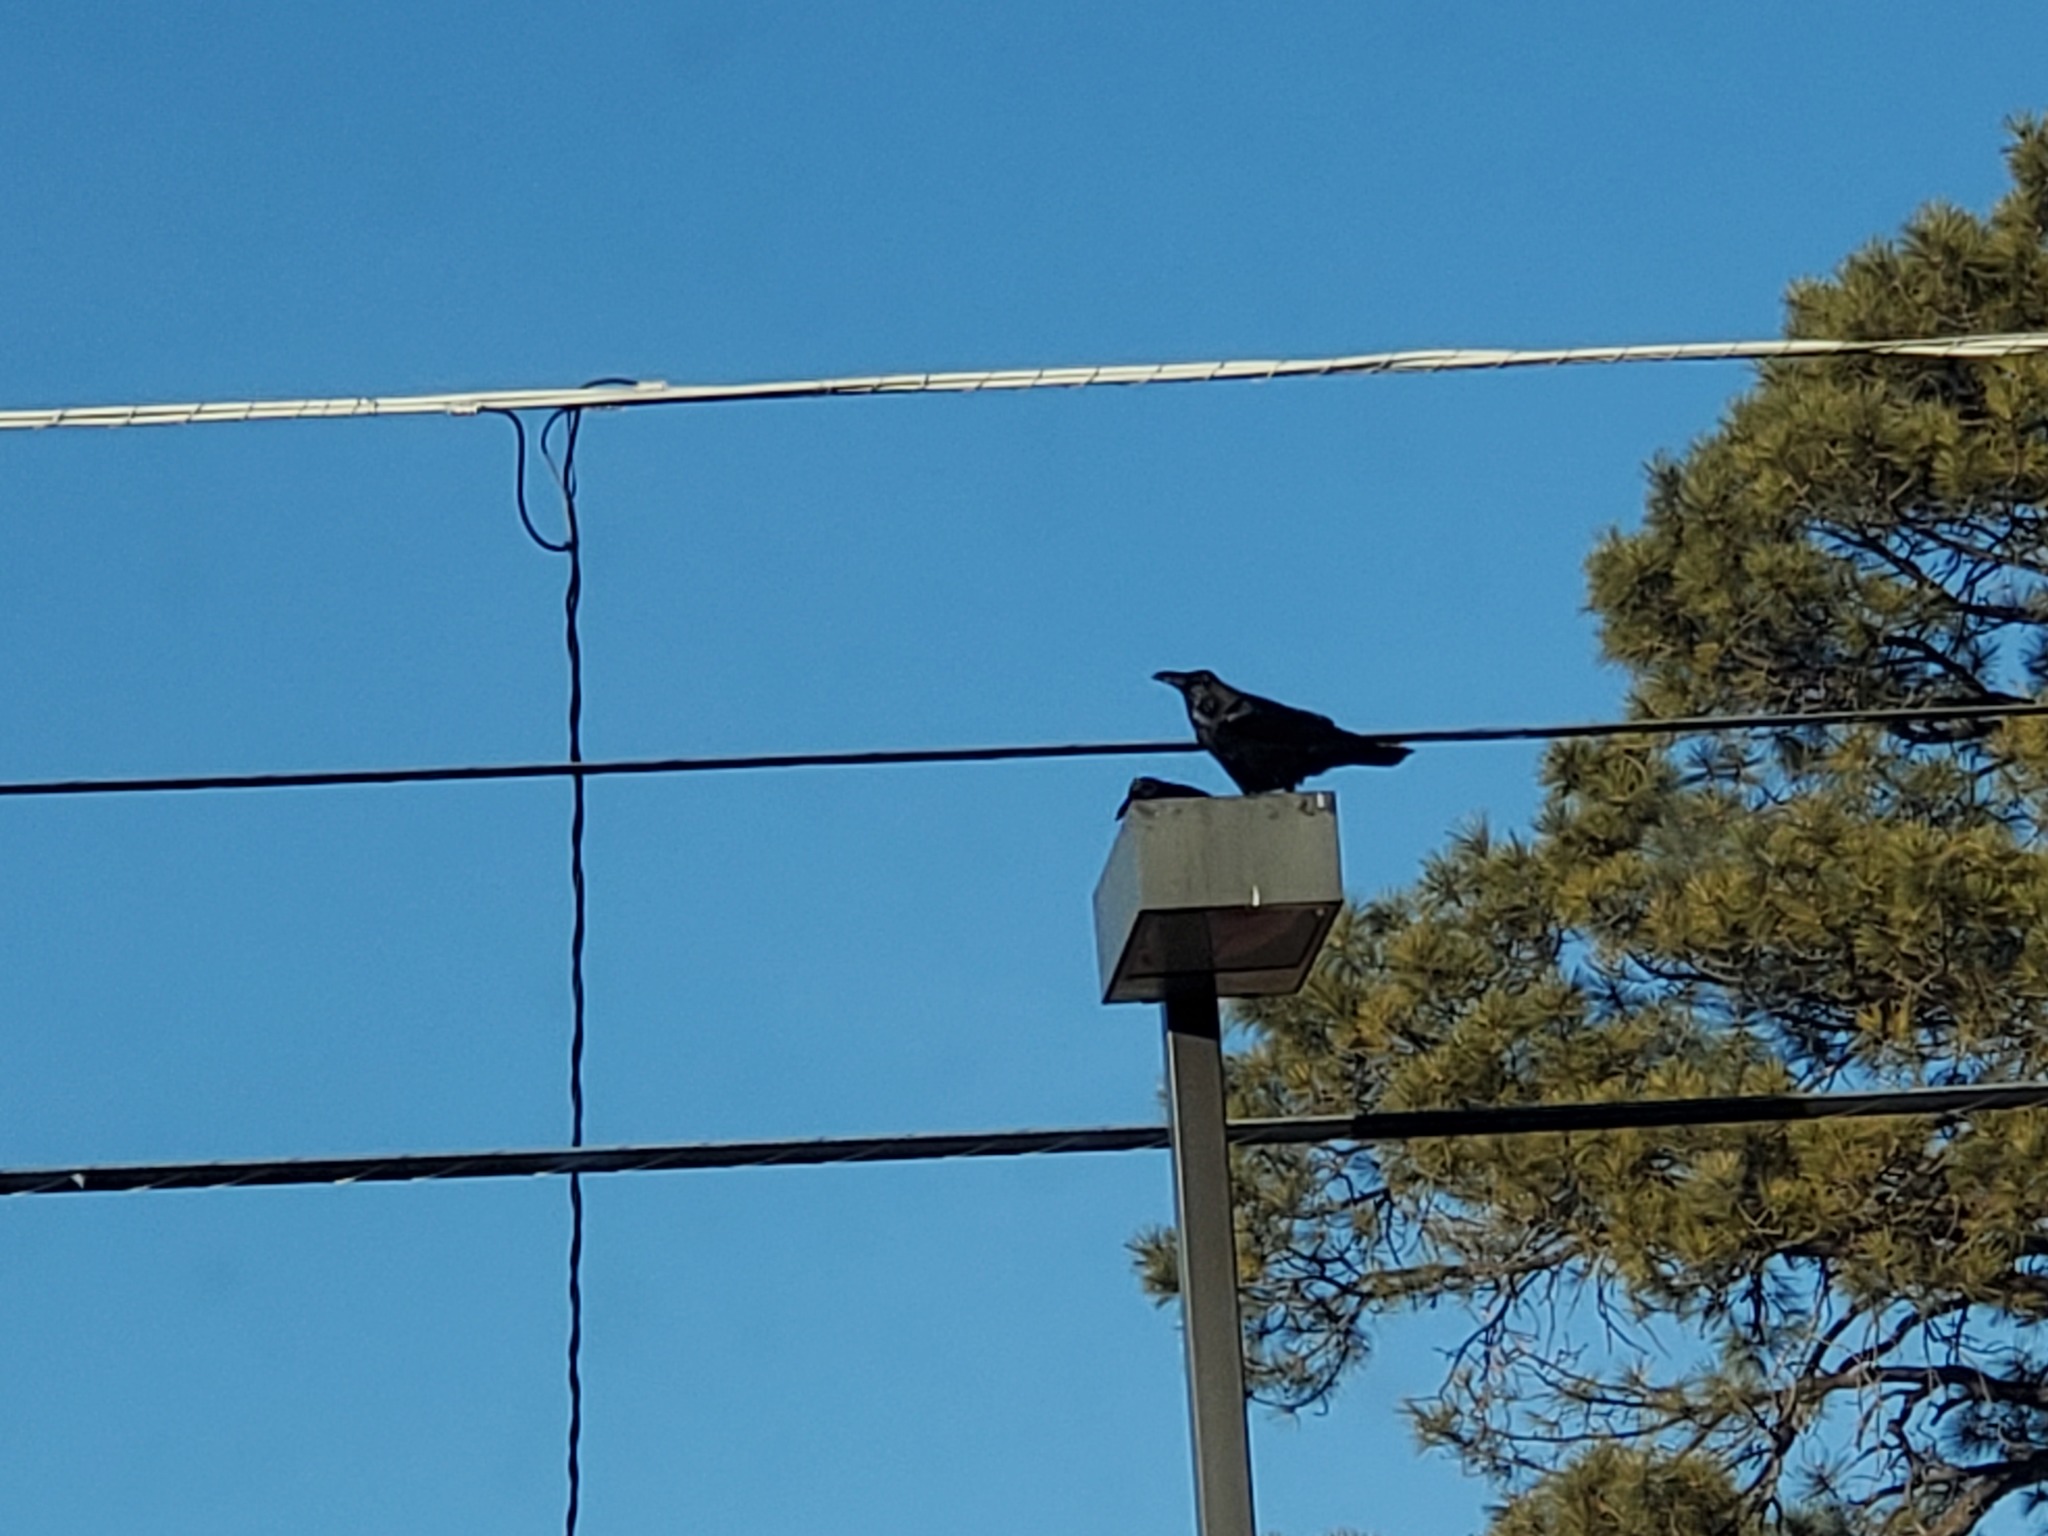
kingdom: Animalia
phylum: Chordata
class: Aves
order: Passeriformes
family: Corvidae
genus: Corvus
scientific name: Corvus corax
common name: Common raven
